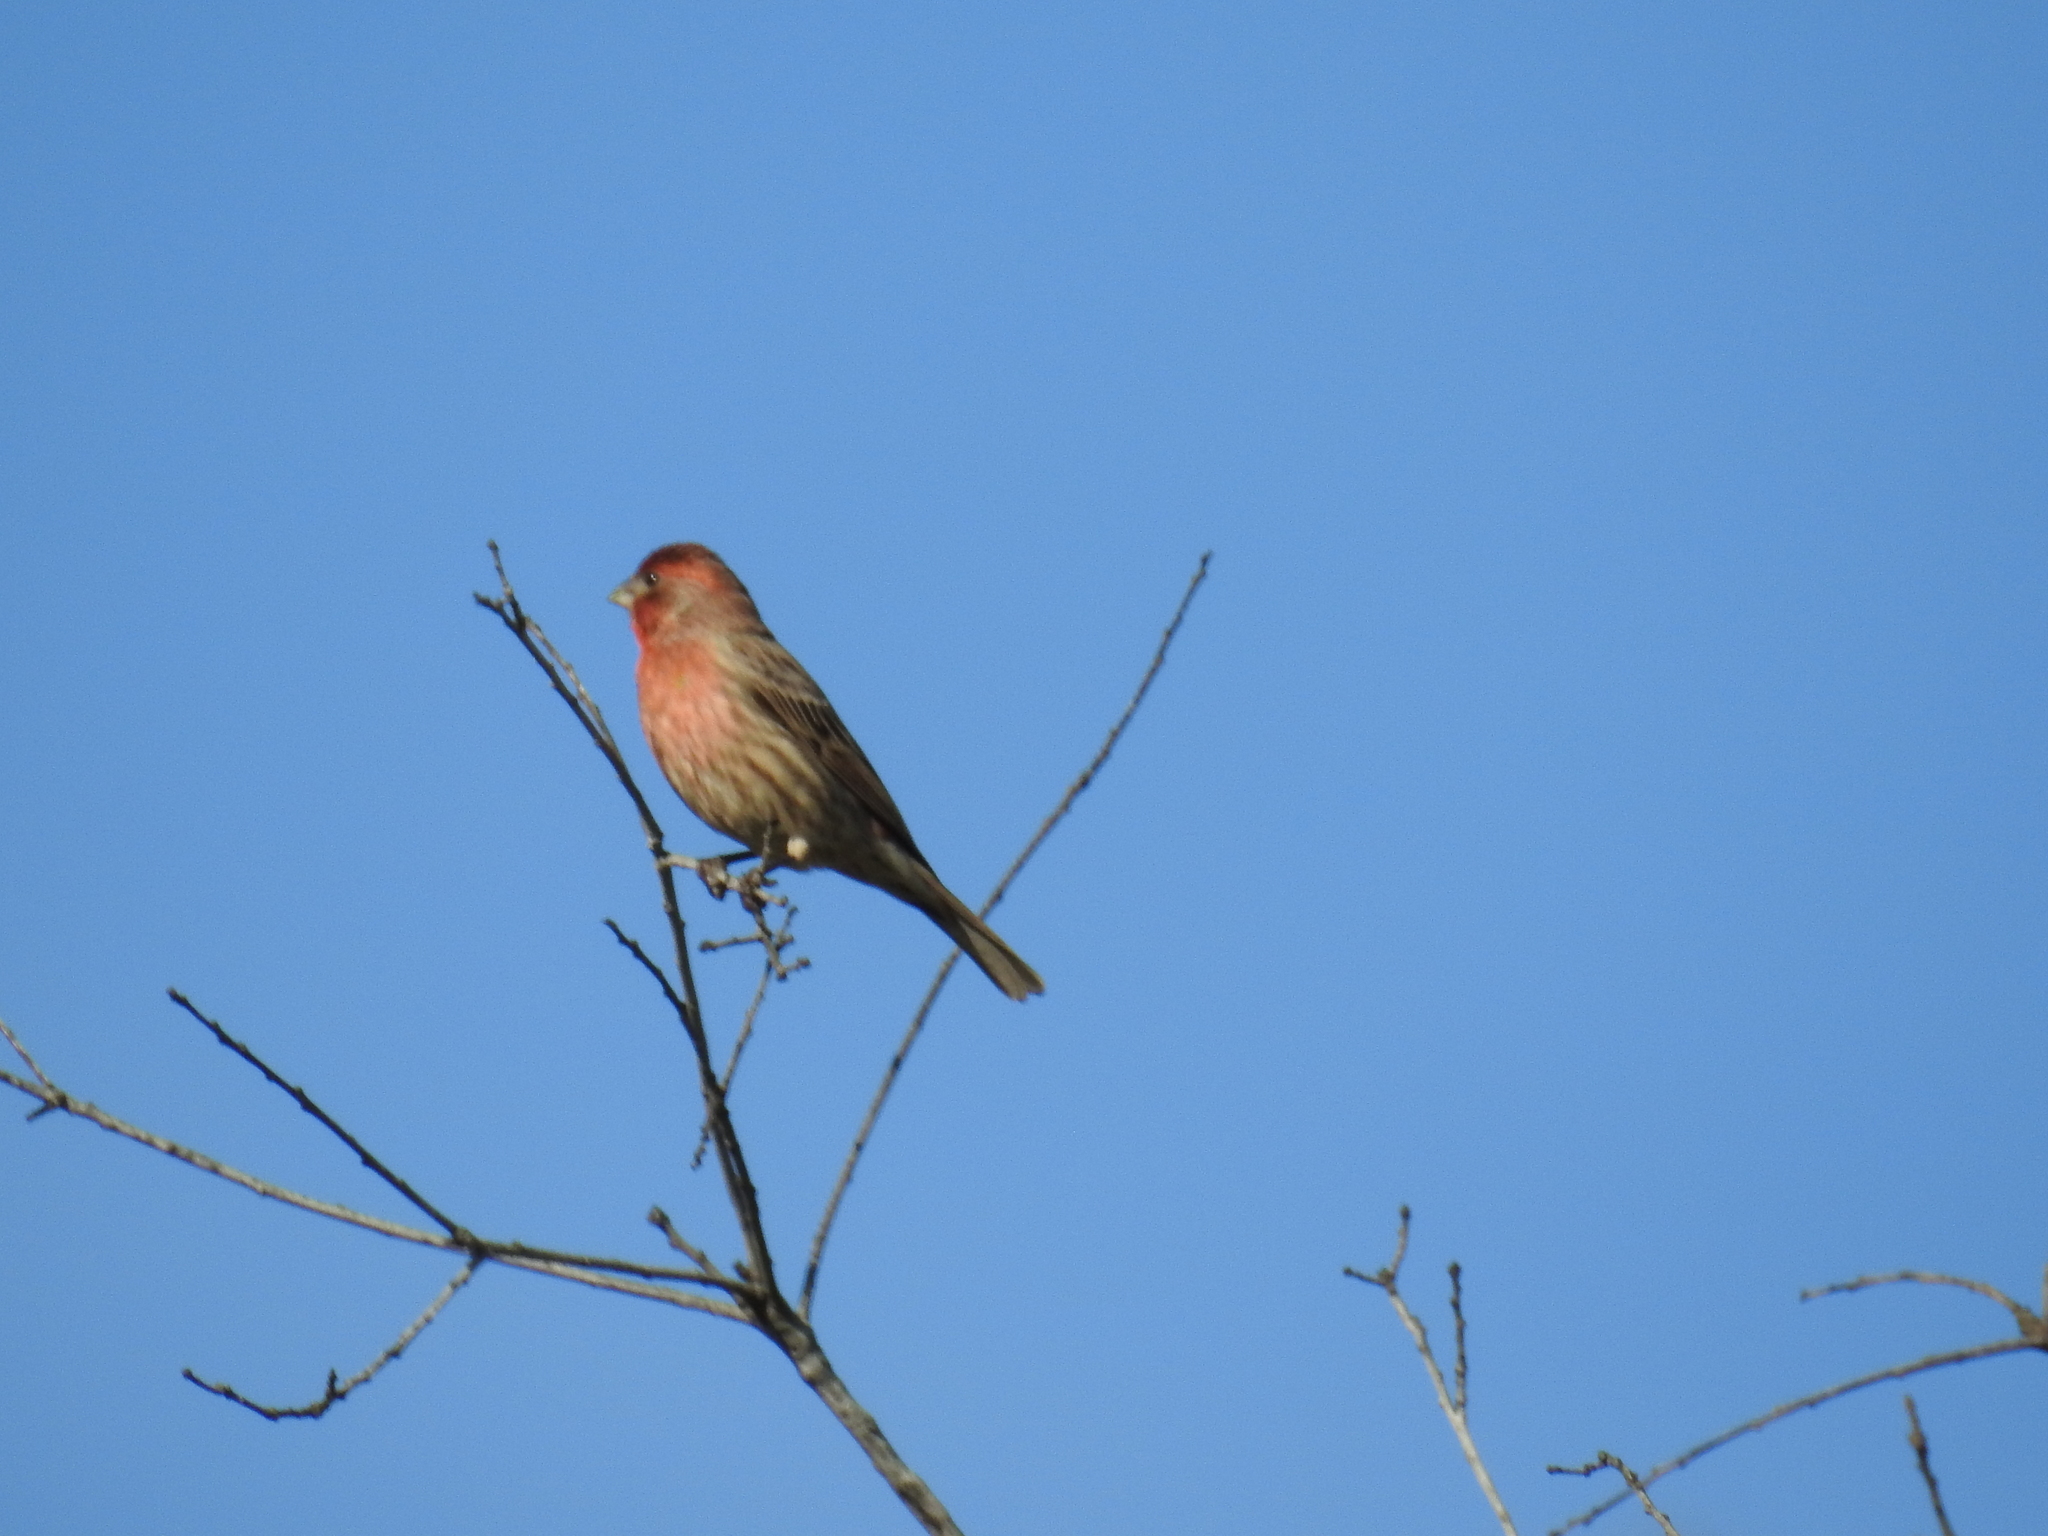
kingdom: Animalia
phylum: Chordata
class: Aves
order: Passeriformes
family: Fringillidae
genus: Haemorhous
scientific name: Haemorhous mexicanus
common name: House finch
